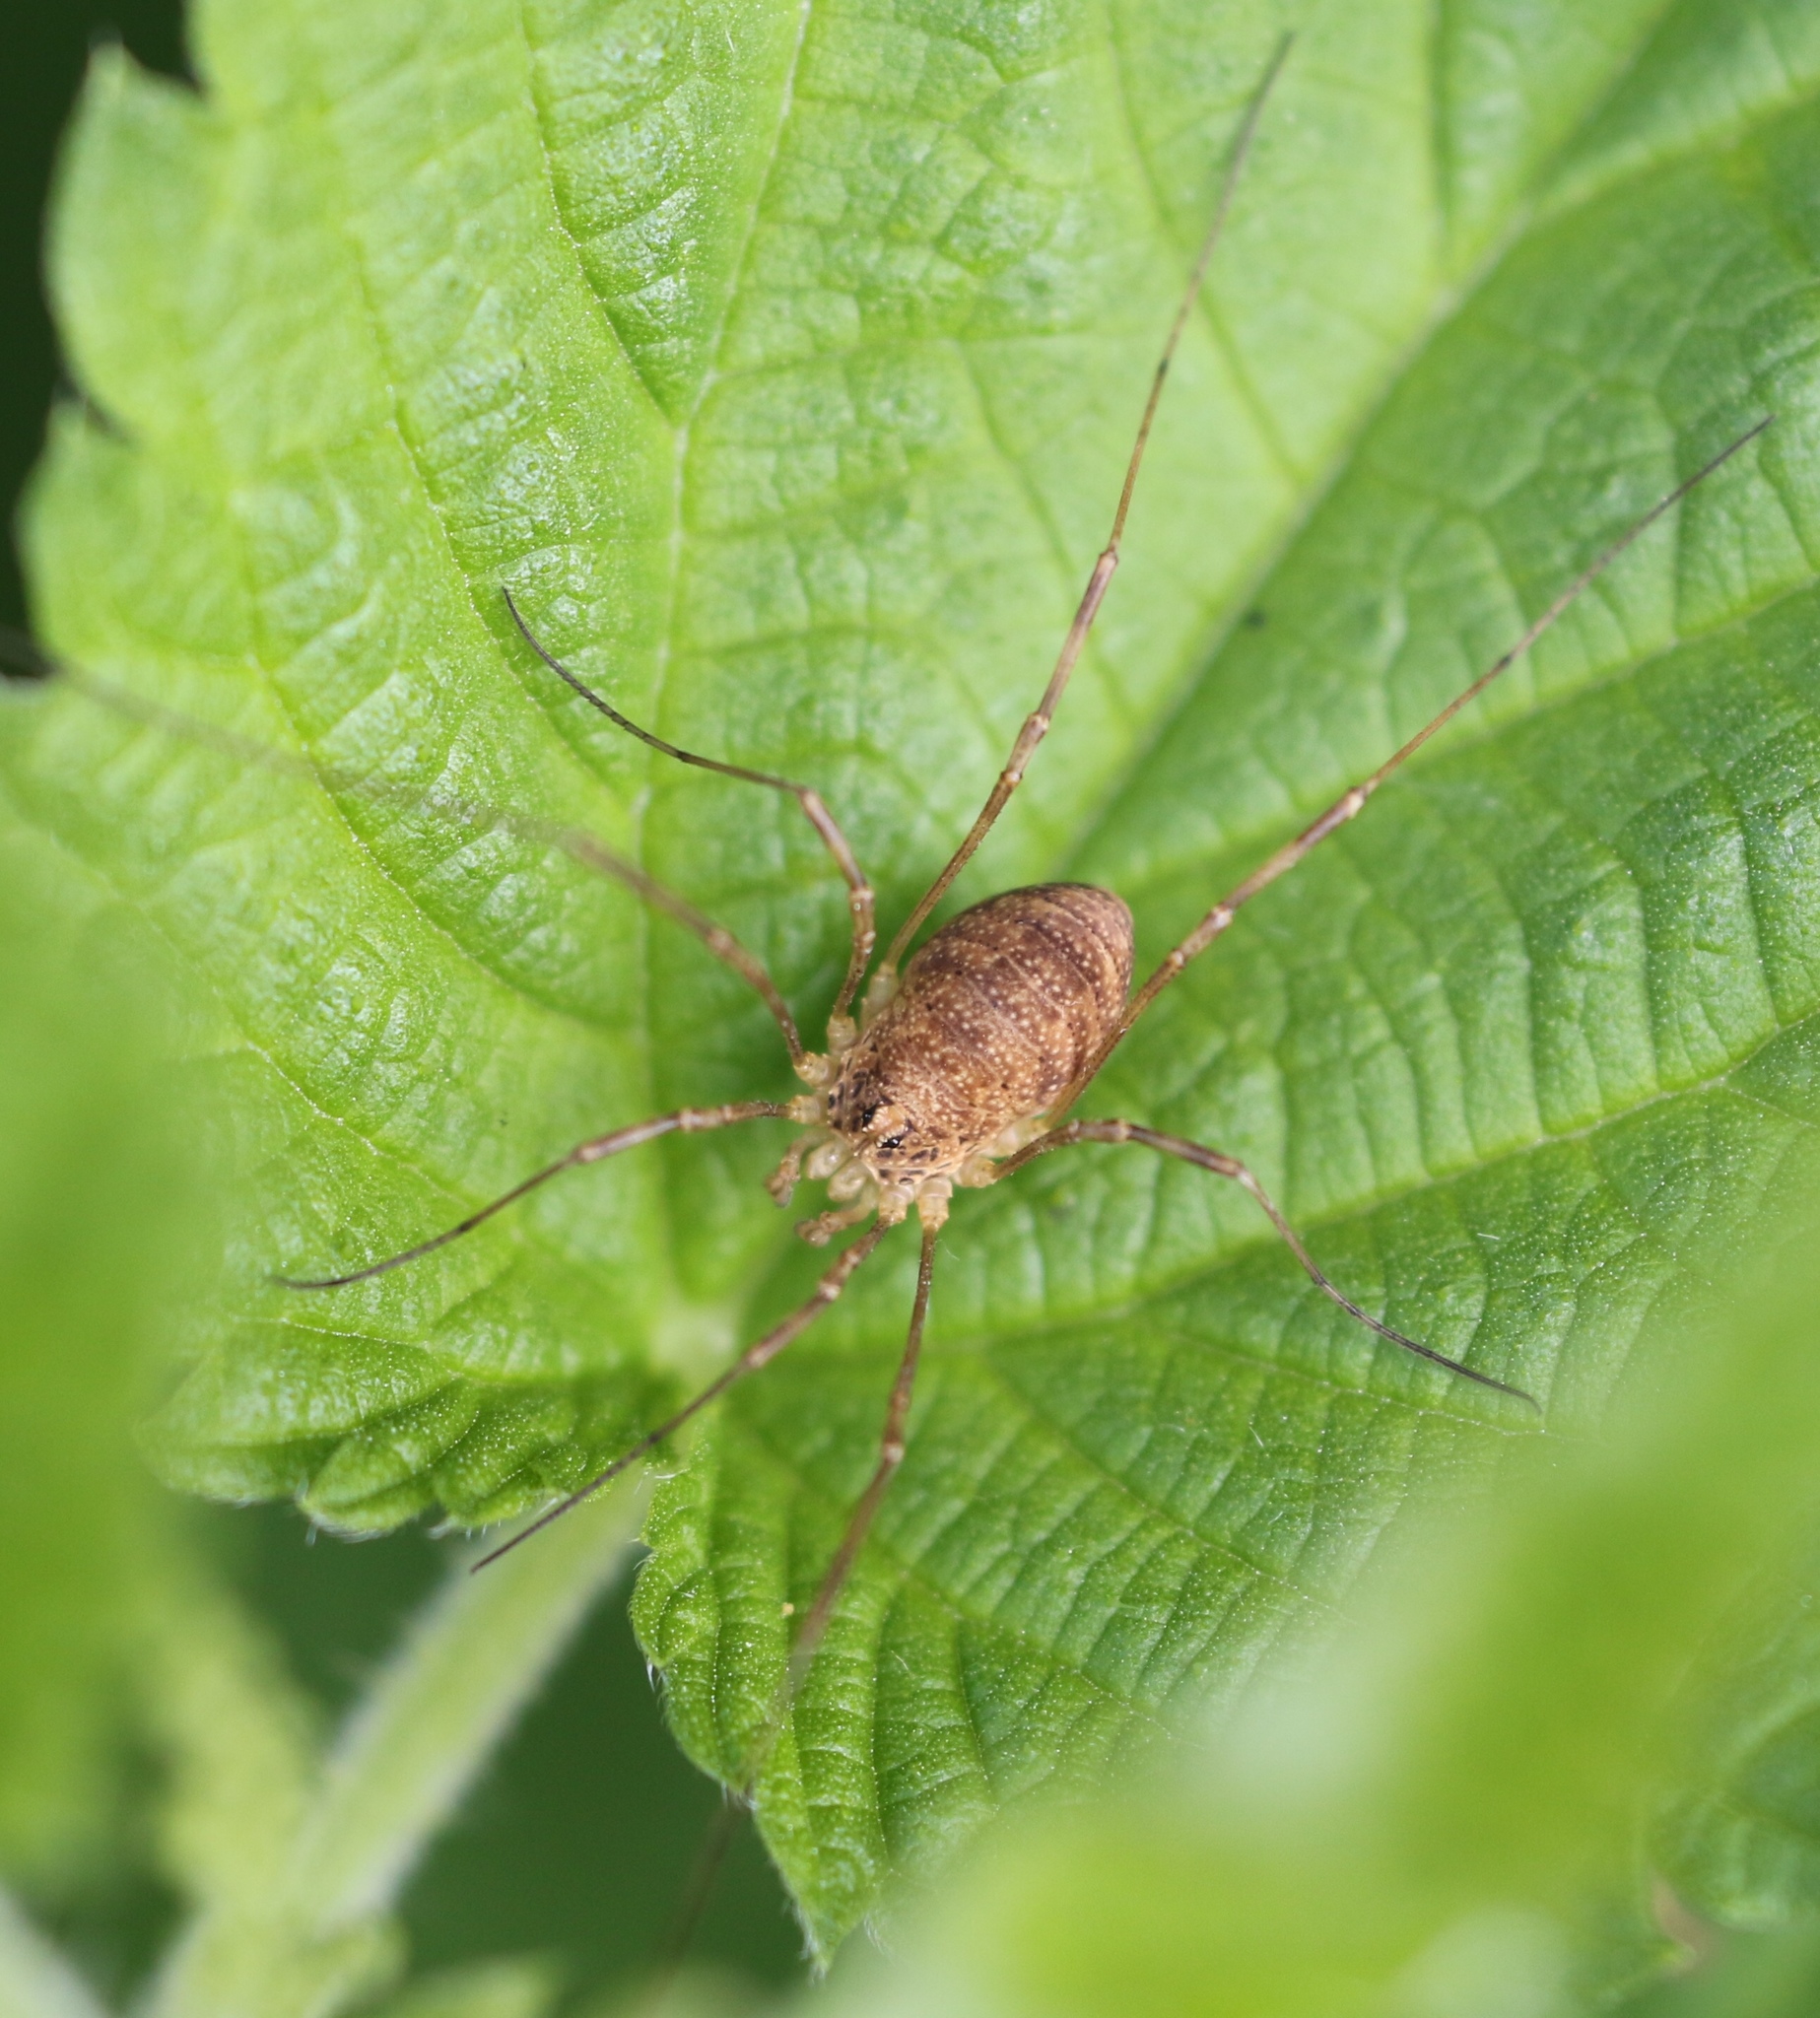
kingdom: Animalia
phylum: Arthropoda
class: Arachnida
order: Opiliones
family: Phalangiidae
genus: Rilaena
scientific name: Rilaena triangularis
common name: Spring harvestman
